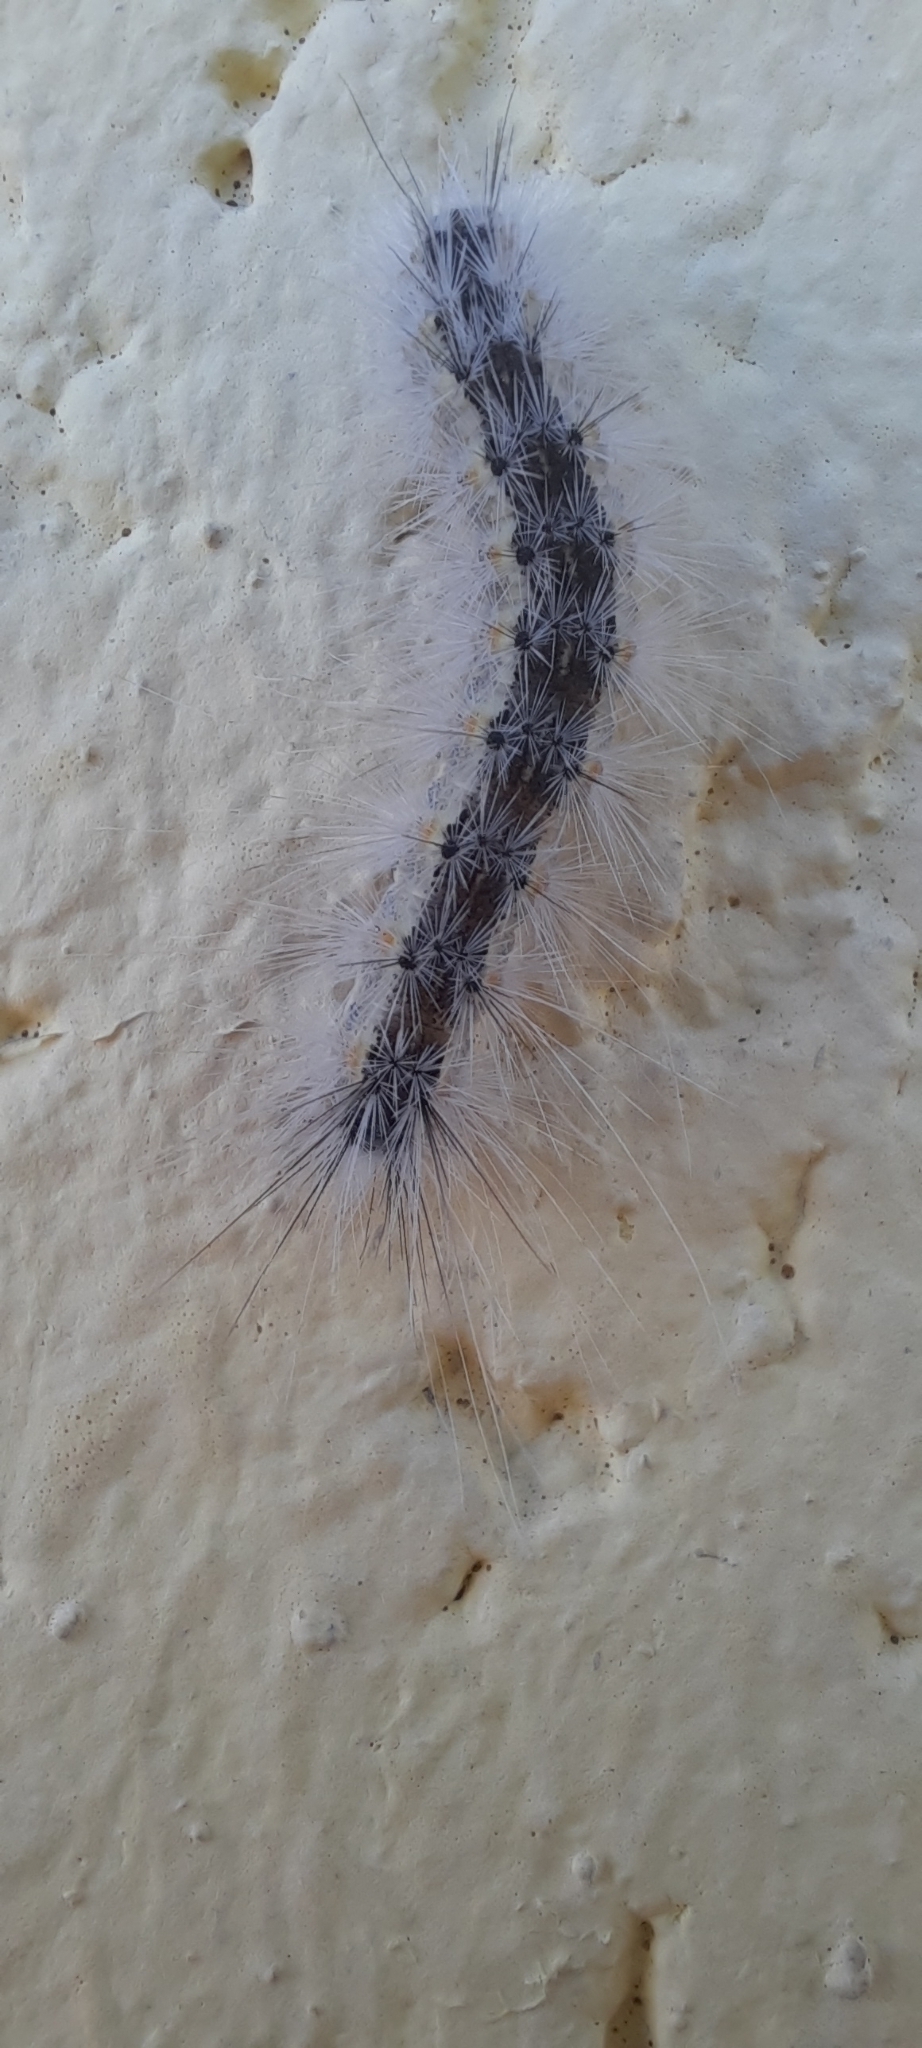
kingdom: Animalia
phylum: Arthropoda
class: Insecta
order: Lepidoptera
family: Erebidae
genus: Hyphantria
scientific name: Hyphantria cunea
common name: American white moth
